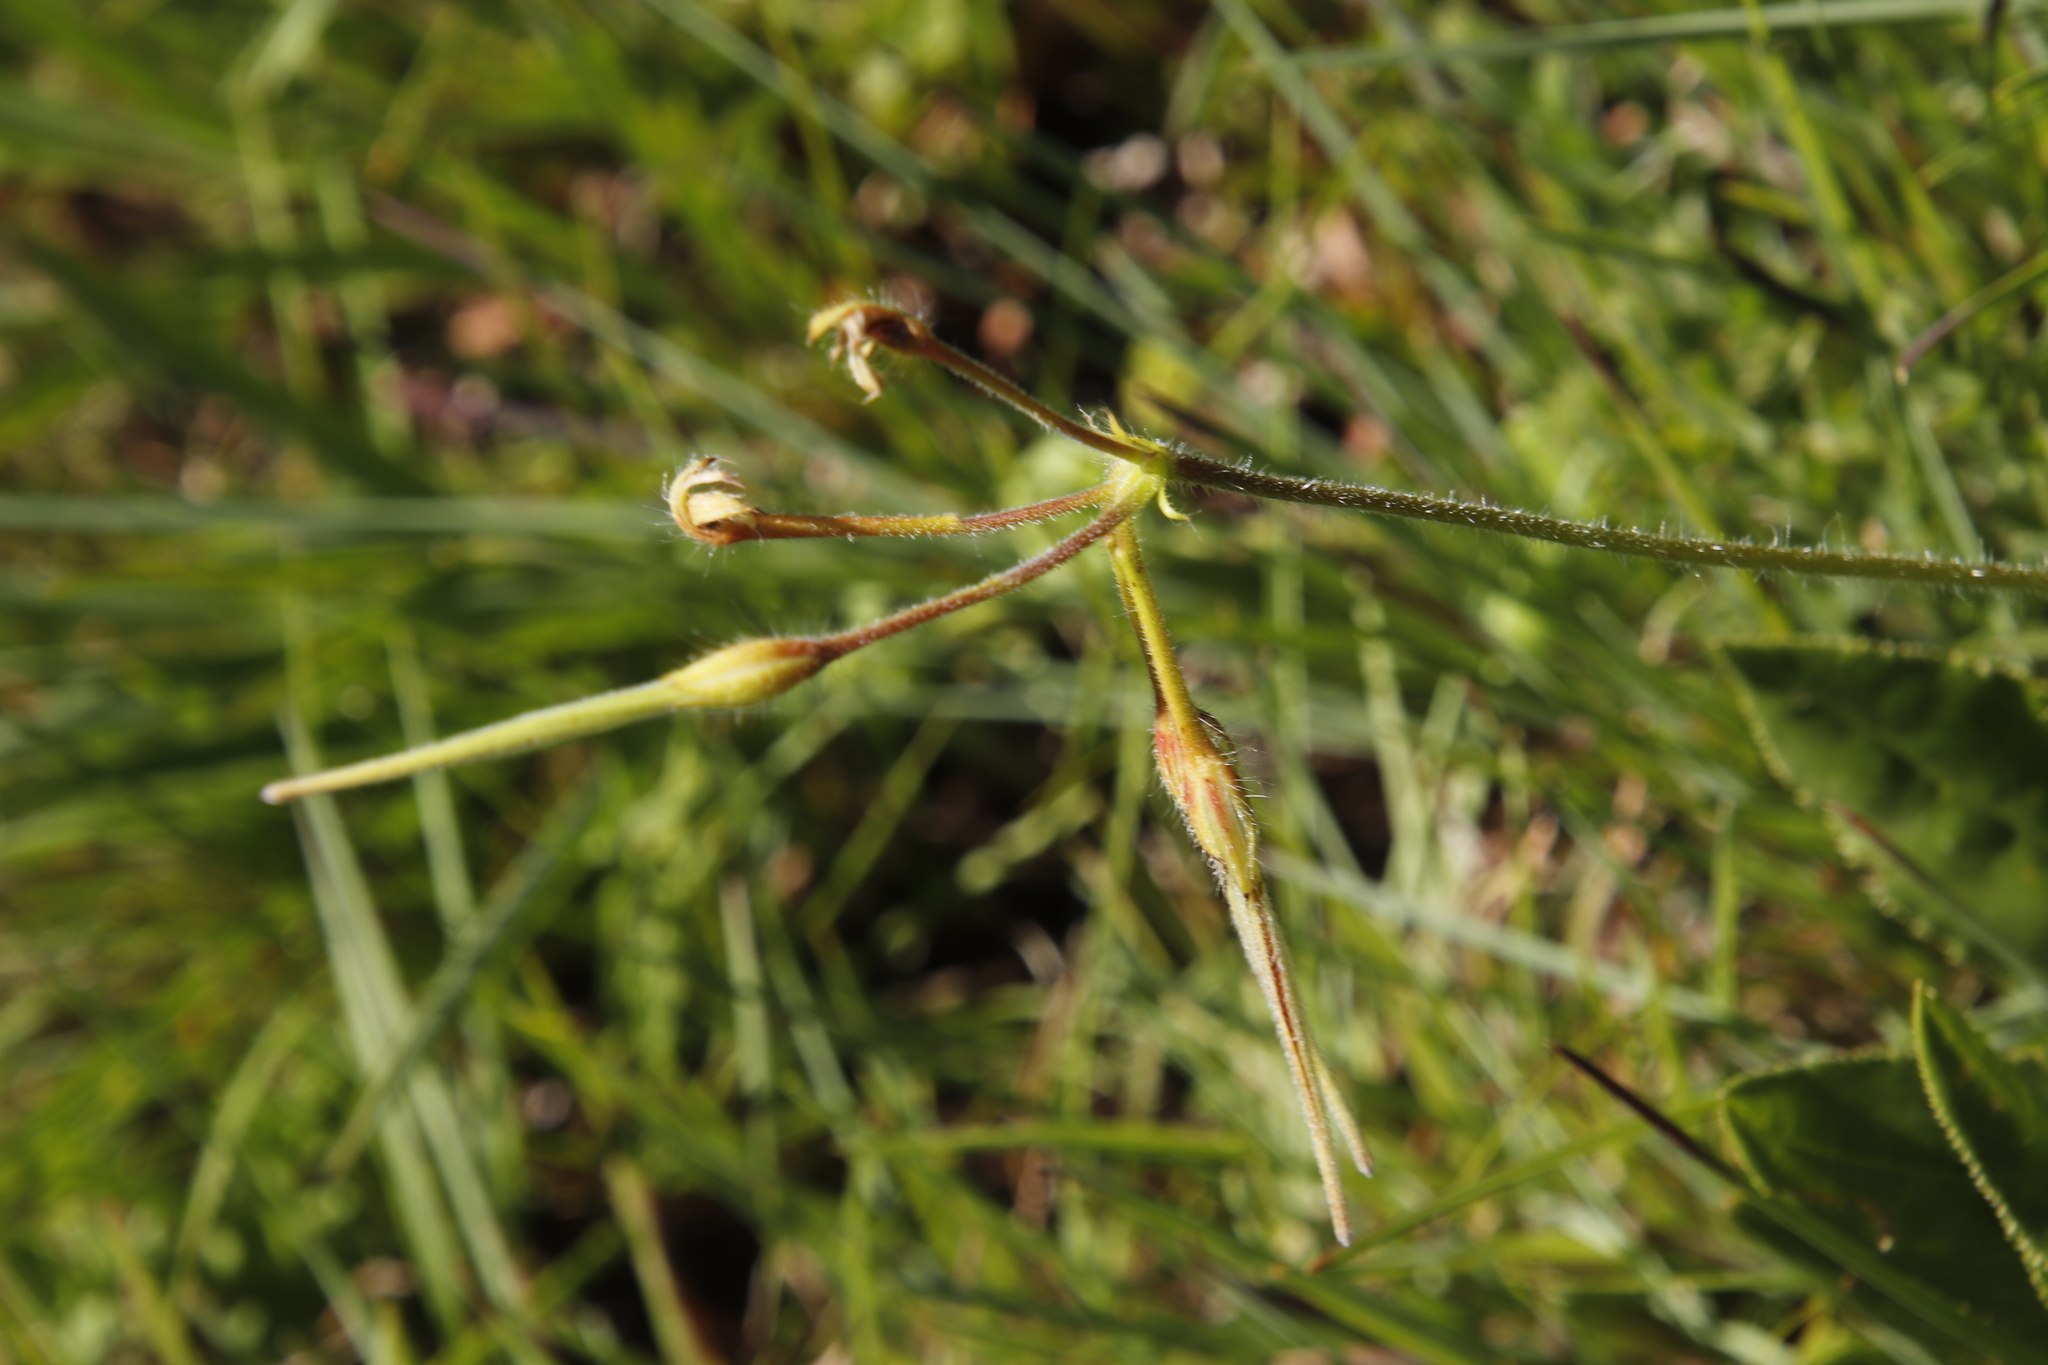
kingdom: Plantae
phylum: Tracheophyta
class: Magnoliopsida
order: Geraniales
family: Geraniaceae
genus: Pelargonium
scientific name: Pelargonium alchemilloides
